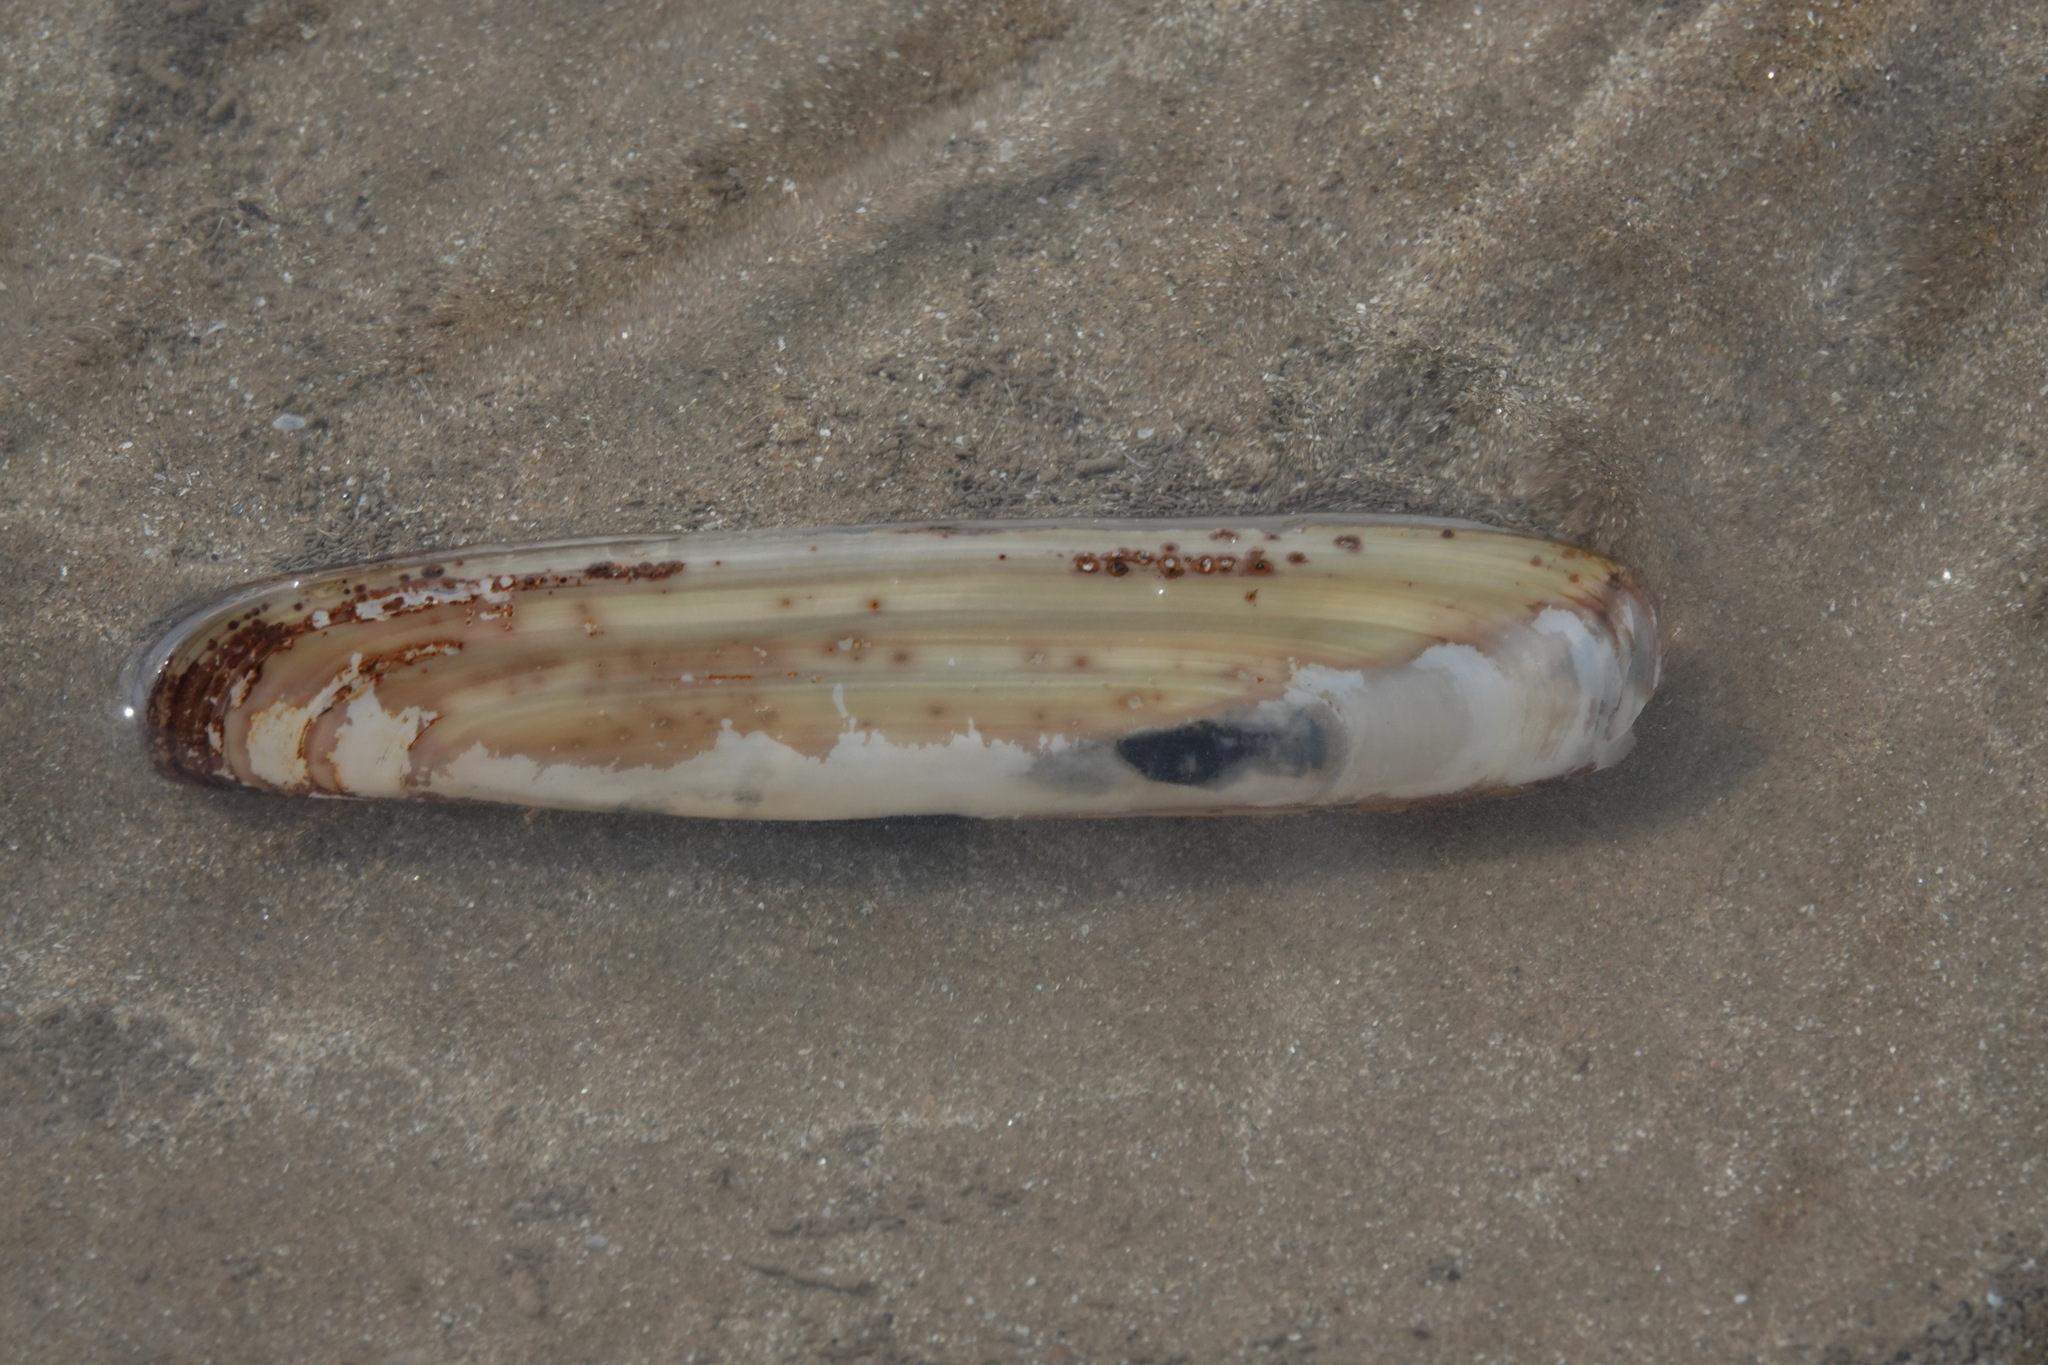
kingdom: Animalia
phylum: Mollusca
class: Bivalvia
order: Adapedonta
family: Pharidae
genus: Pharus
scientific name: Pharus legumen
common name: Bean razor clam
